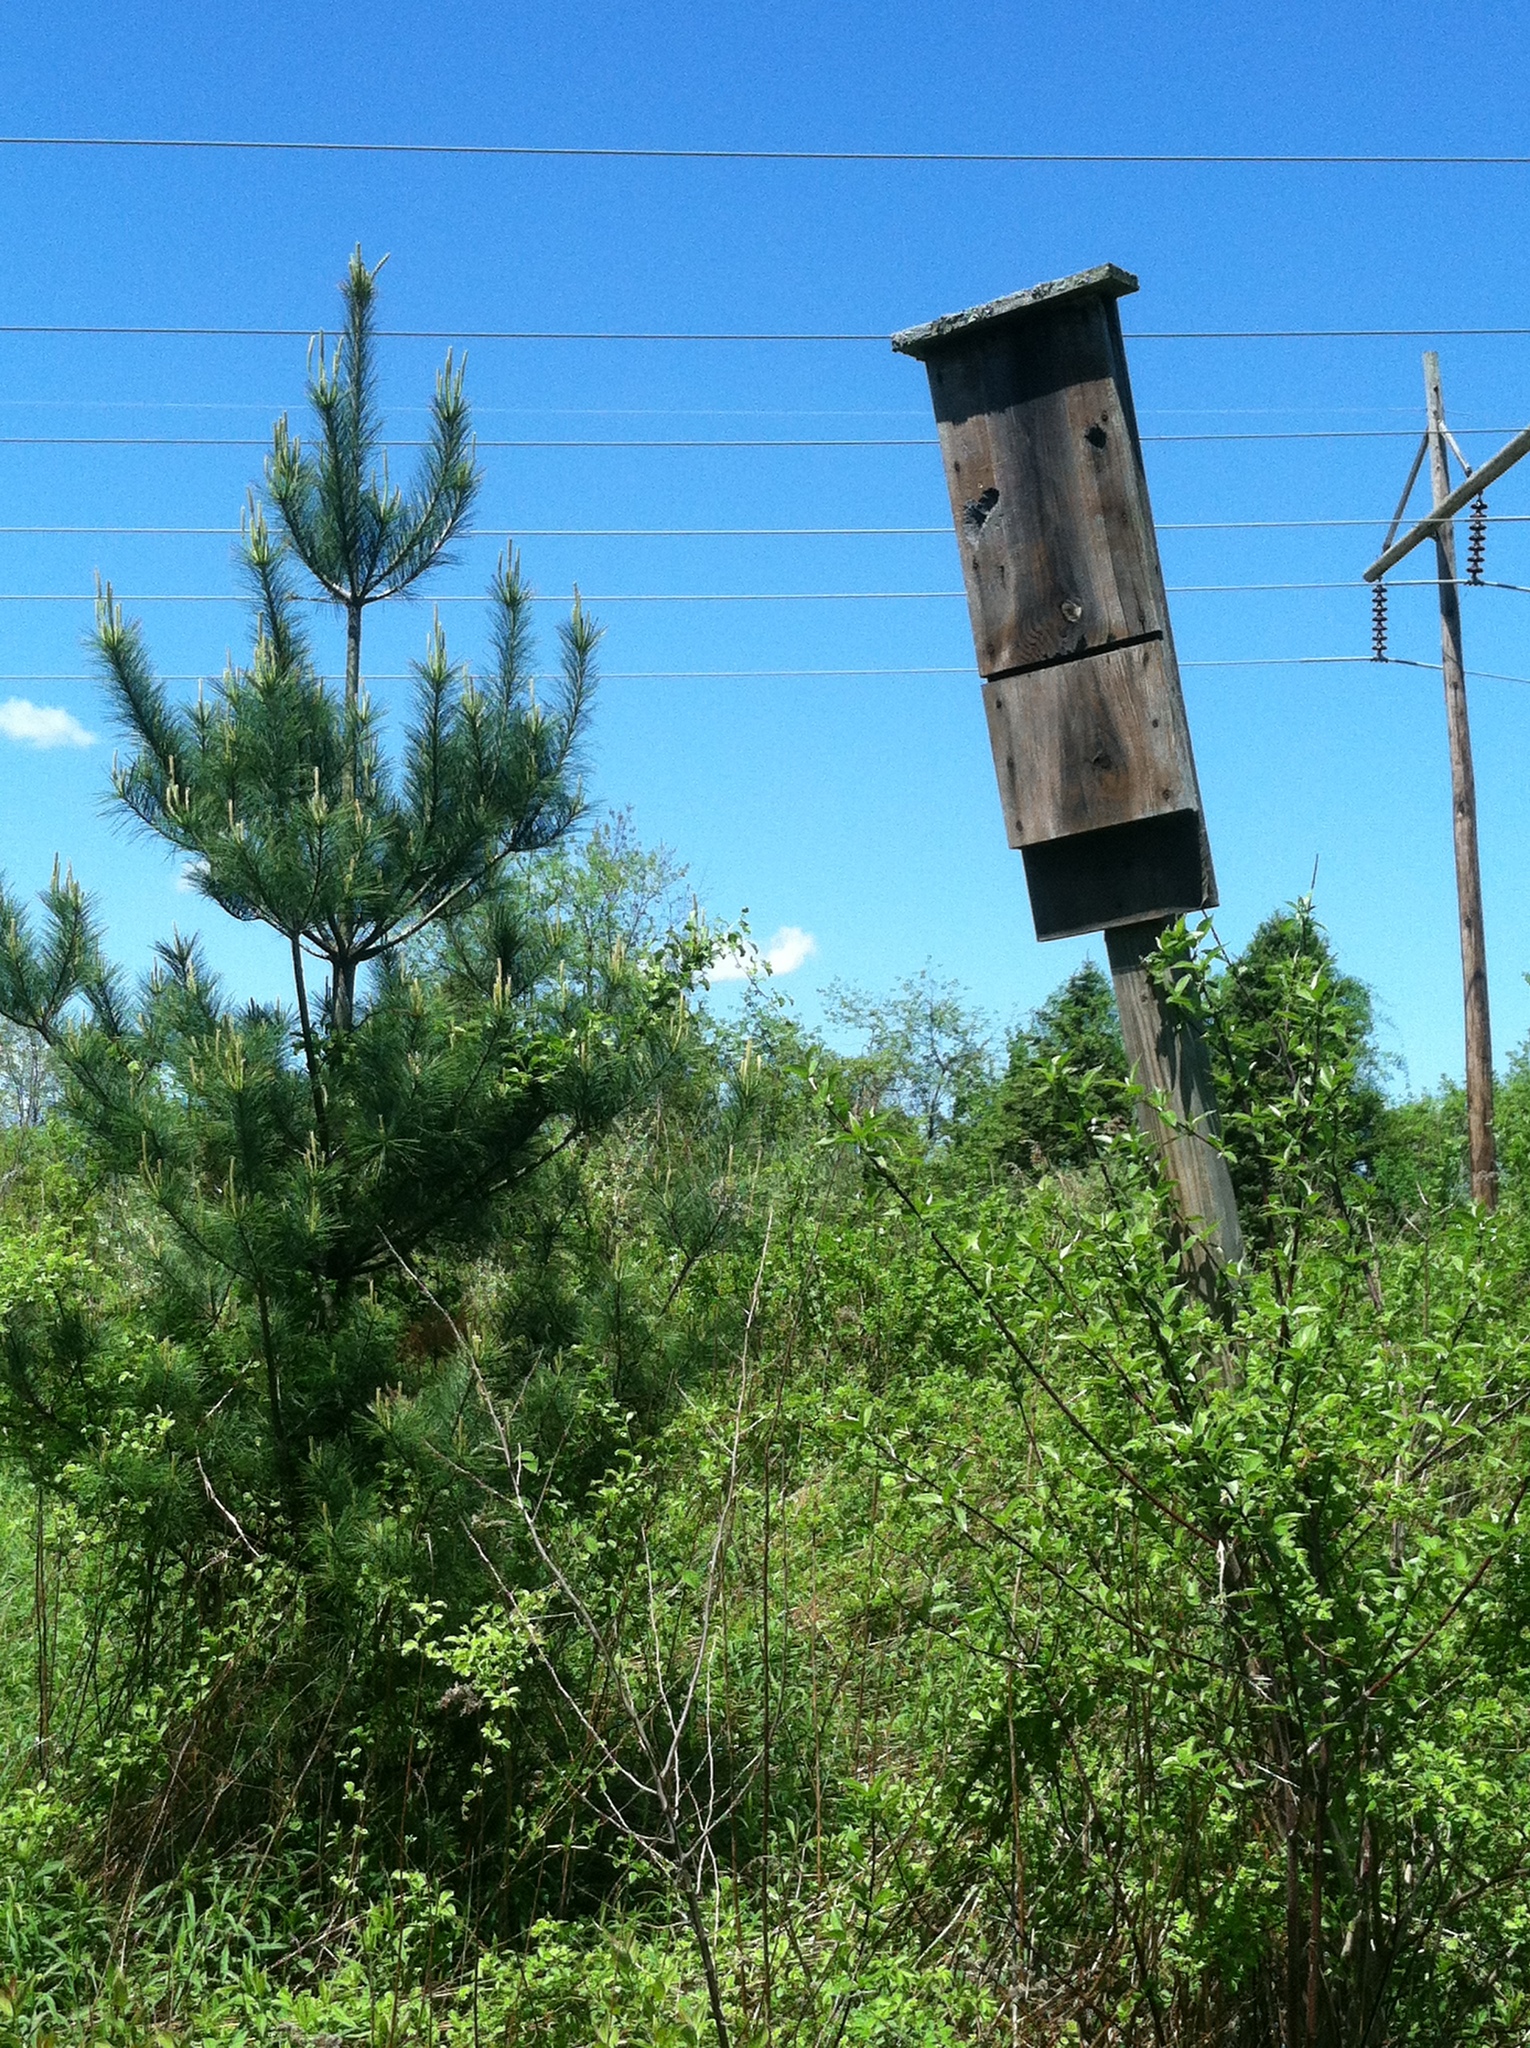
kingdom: Plantae
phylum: Tracheophyta
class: Pinopsida
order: Pinales
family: Pinaceae
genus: Pinus
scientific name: Pinus strobus
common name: Weymouth pine
